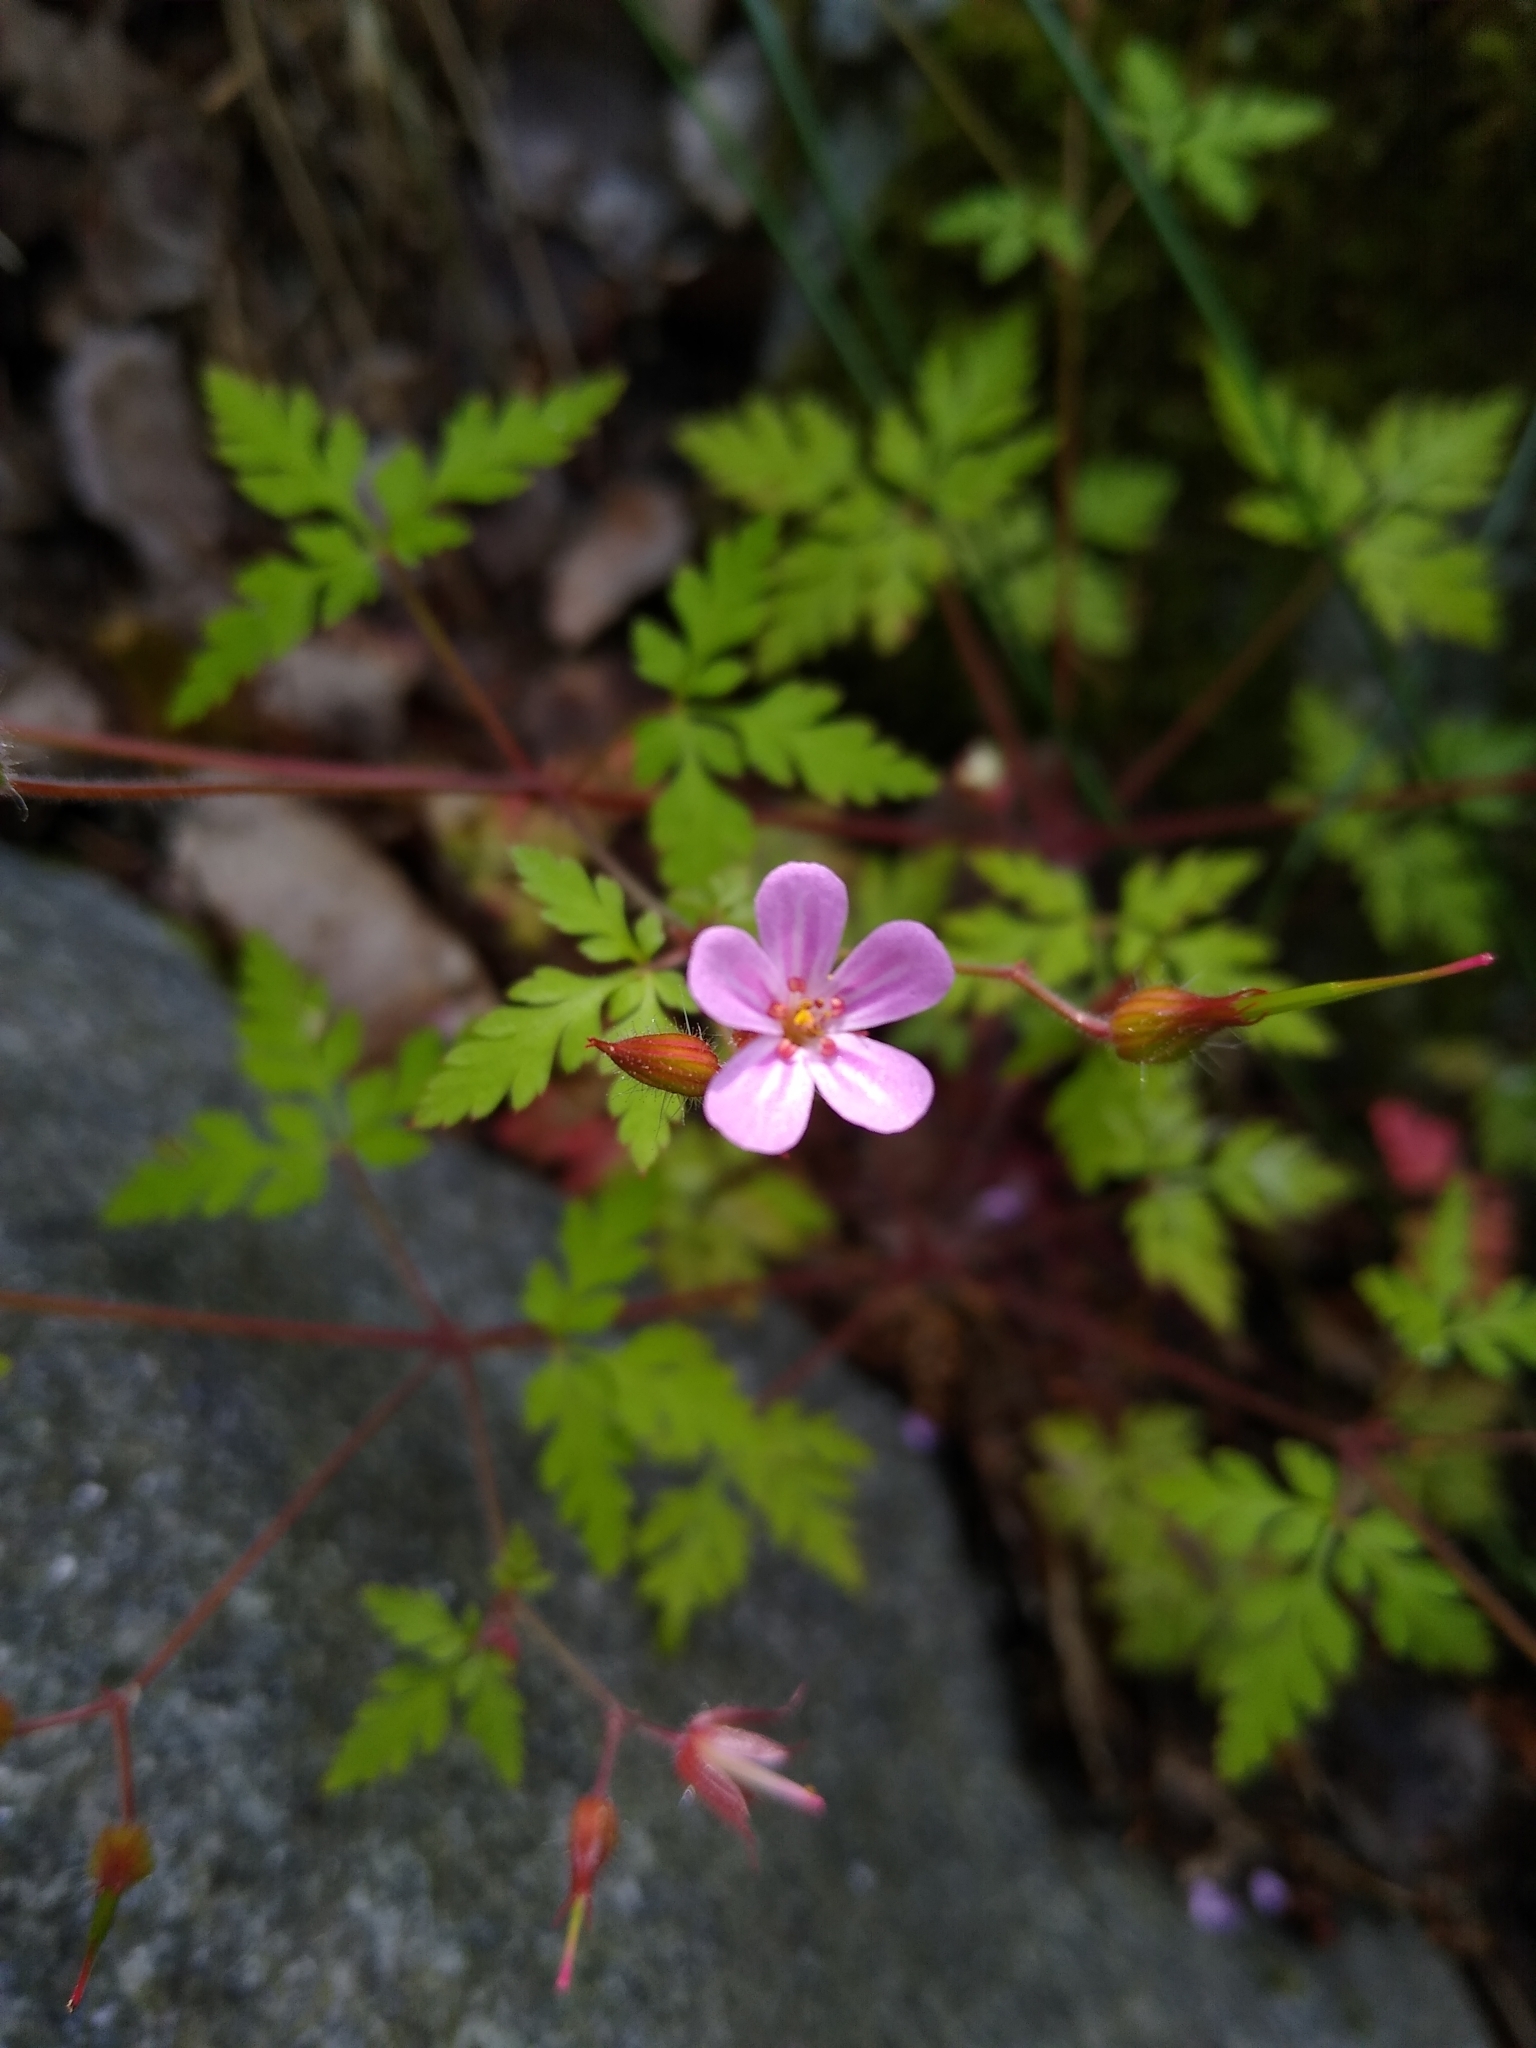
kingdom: Plantae
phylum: Tracheophyta
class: Magnoliopsida
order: Geraniales
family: Geraniaceae
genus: Geranium
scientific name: Geranium robertianum
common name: Herb-robert
